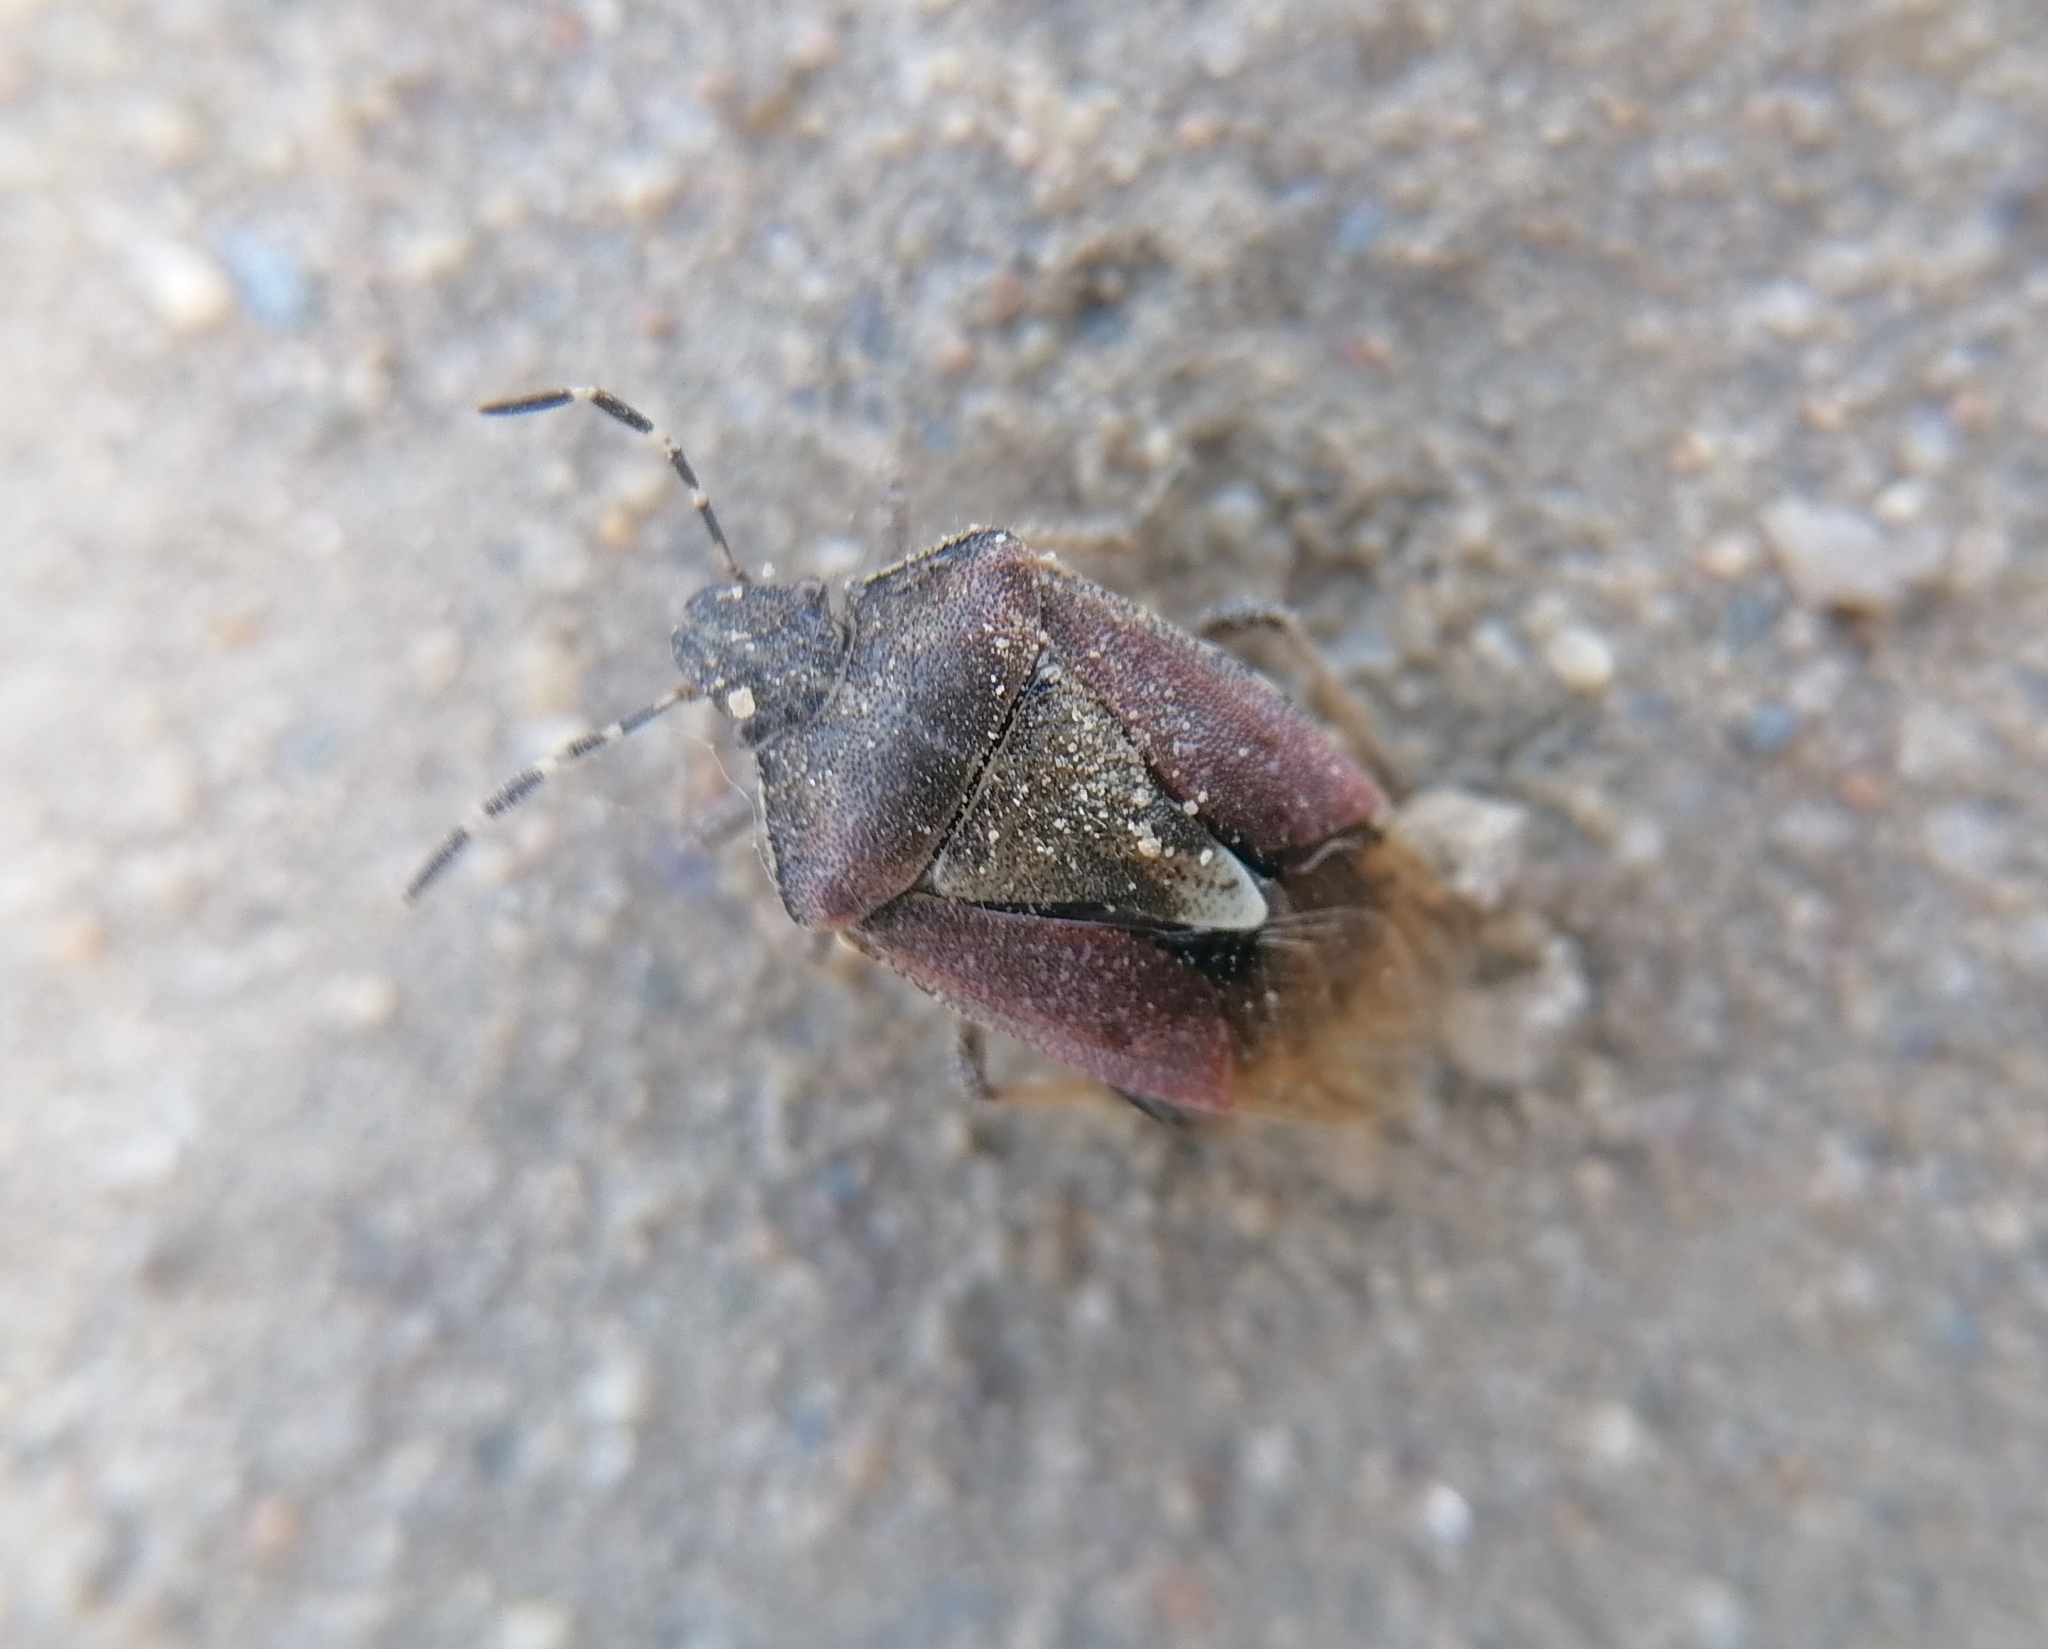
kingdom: Animalia
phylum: Arthropoda
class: Insecta
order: Hemiptera
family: Pentatomidae
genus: Dolycoris
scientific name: Dolycoris baccarum
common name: Sloe bug
